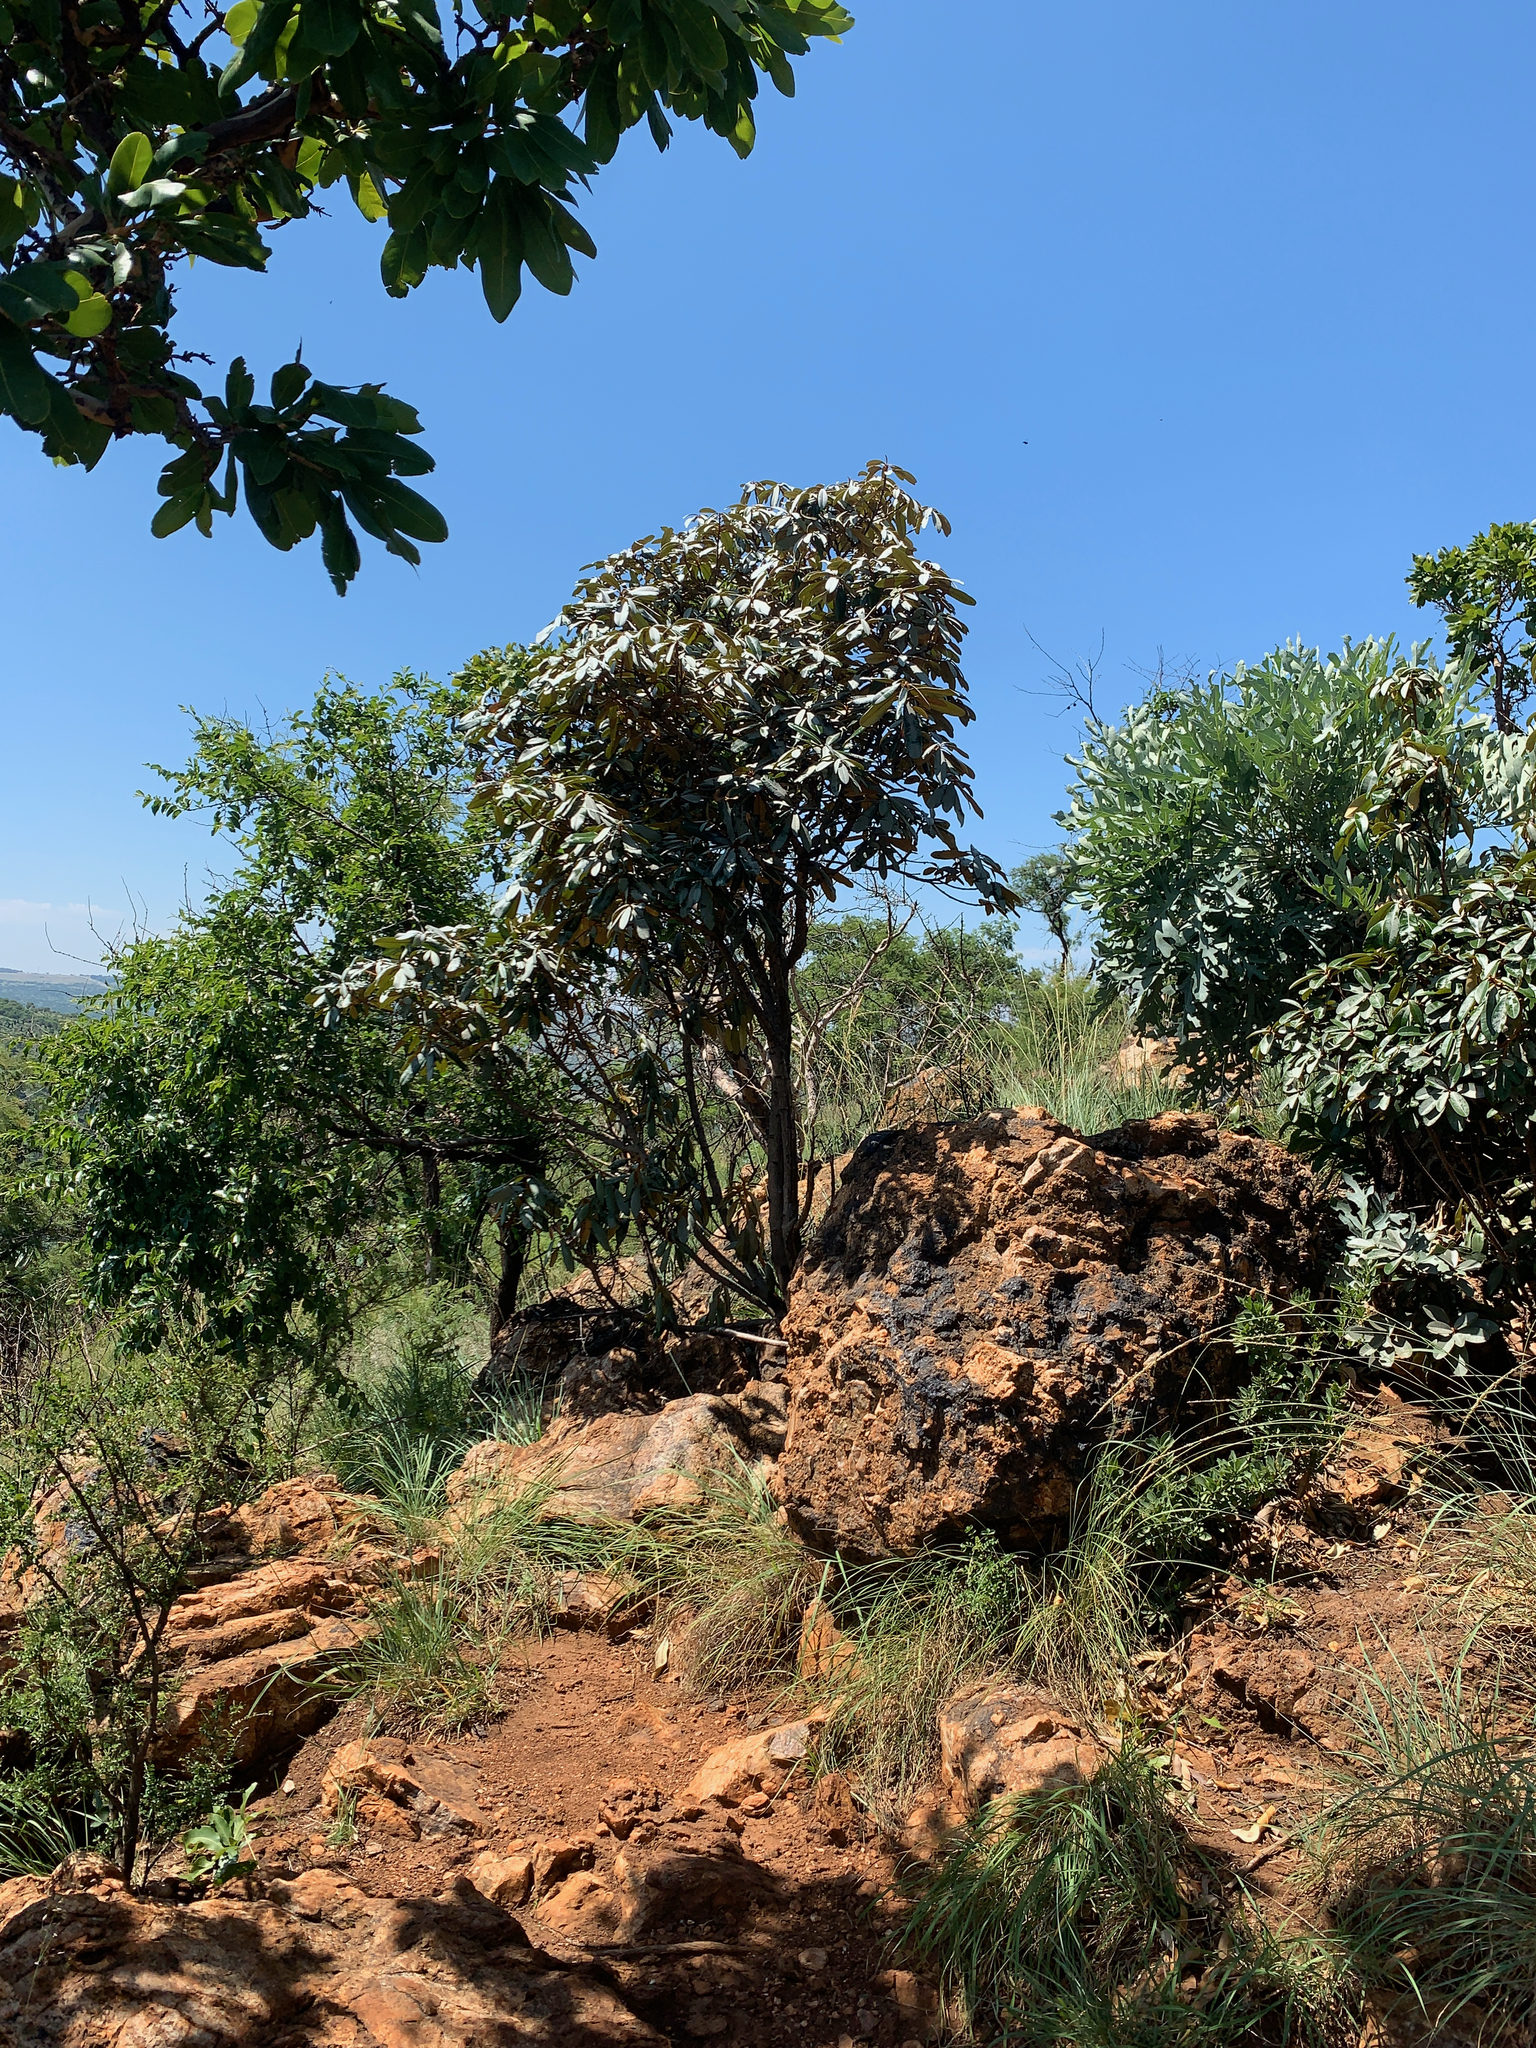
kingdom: Plantae
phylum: Tracheophyta
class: Magnoliopsida
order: Ericales
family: Sapotaceae
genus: Englerophytum
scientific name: Englerophytum magalismontanum
